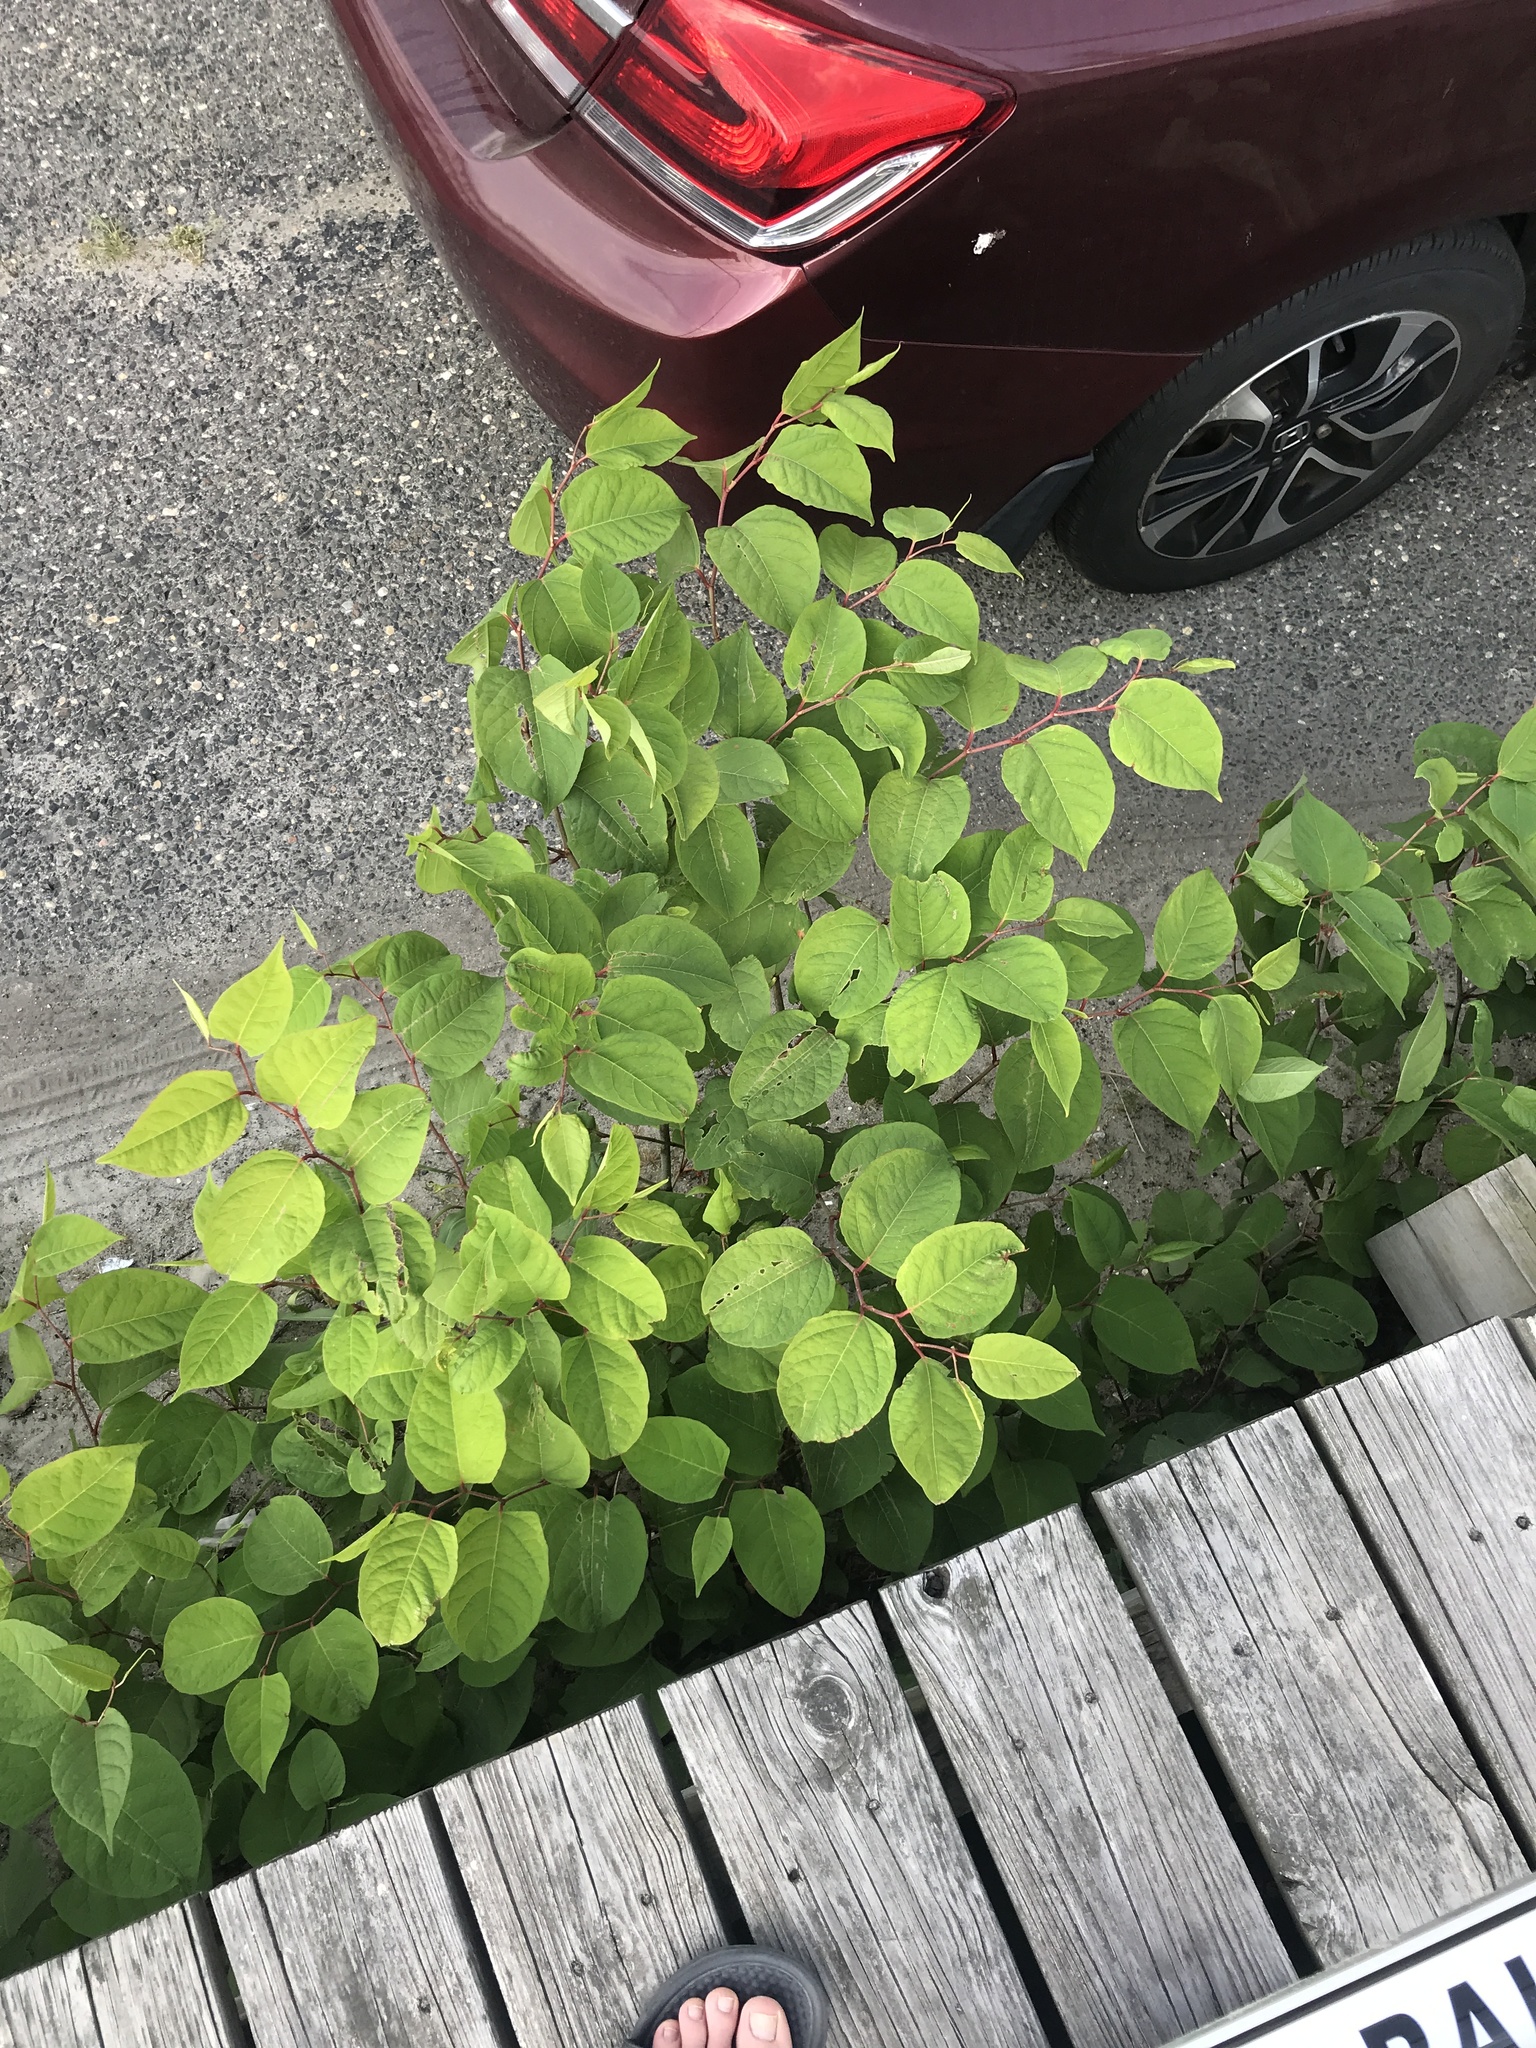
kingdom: Plantae
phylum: Tracheophyta
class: Magnoliopsida
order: Caryophyllales
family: Polygonaceae
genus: Reynoutria
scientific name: Reynoutria japonica
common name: Japanese knotweed
